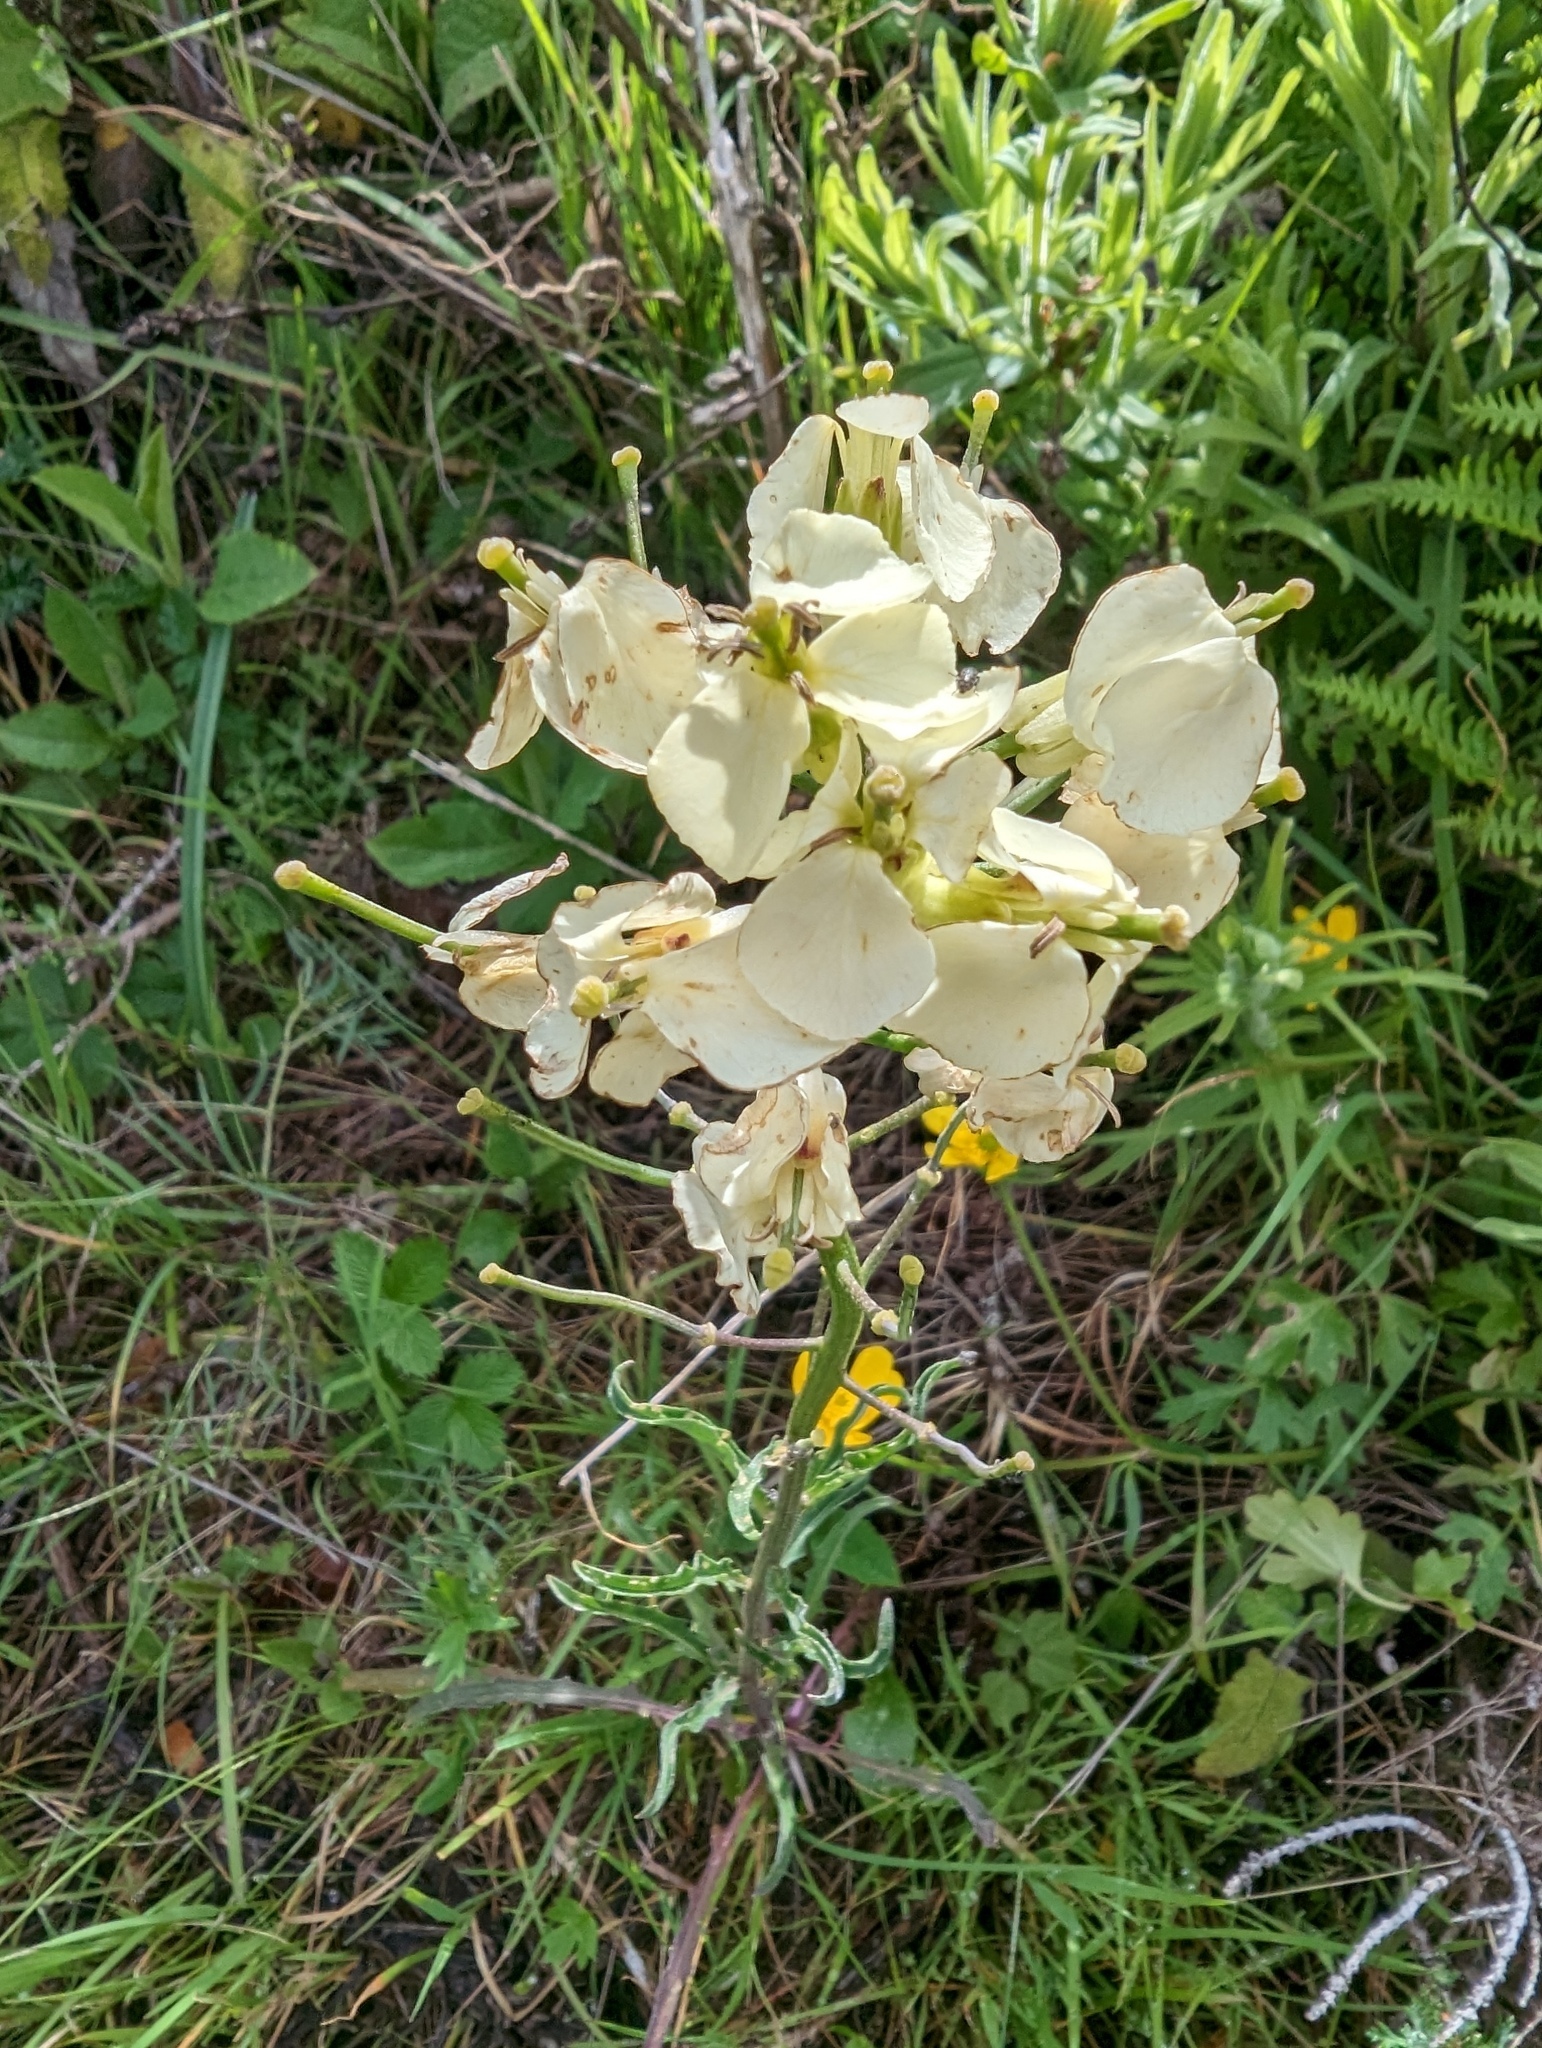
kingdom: Plantae
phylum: Tracheophyta
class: Magnoliopsida
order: Brassicales
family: Brassicaceae
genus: Erysimum
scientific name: Erysimum franciscanum
